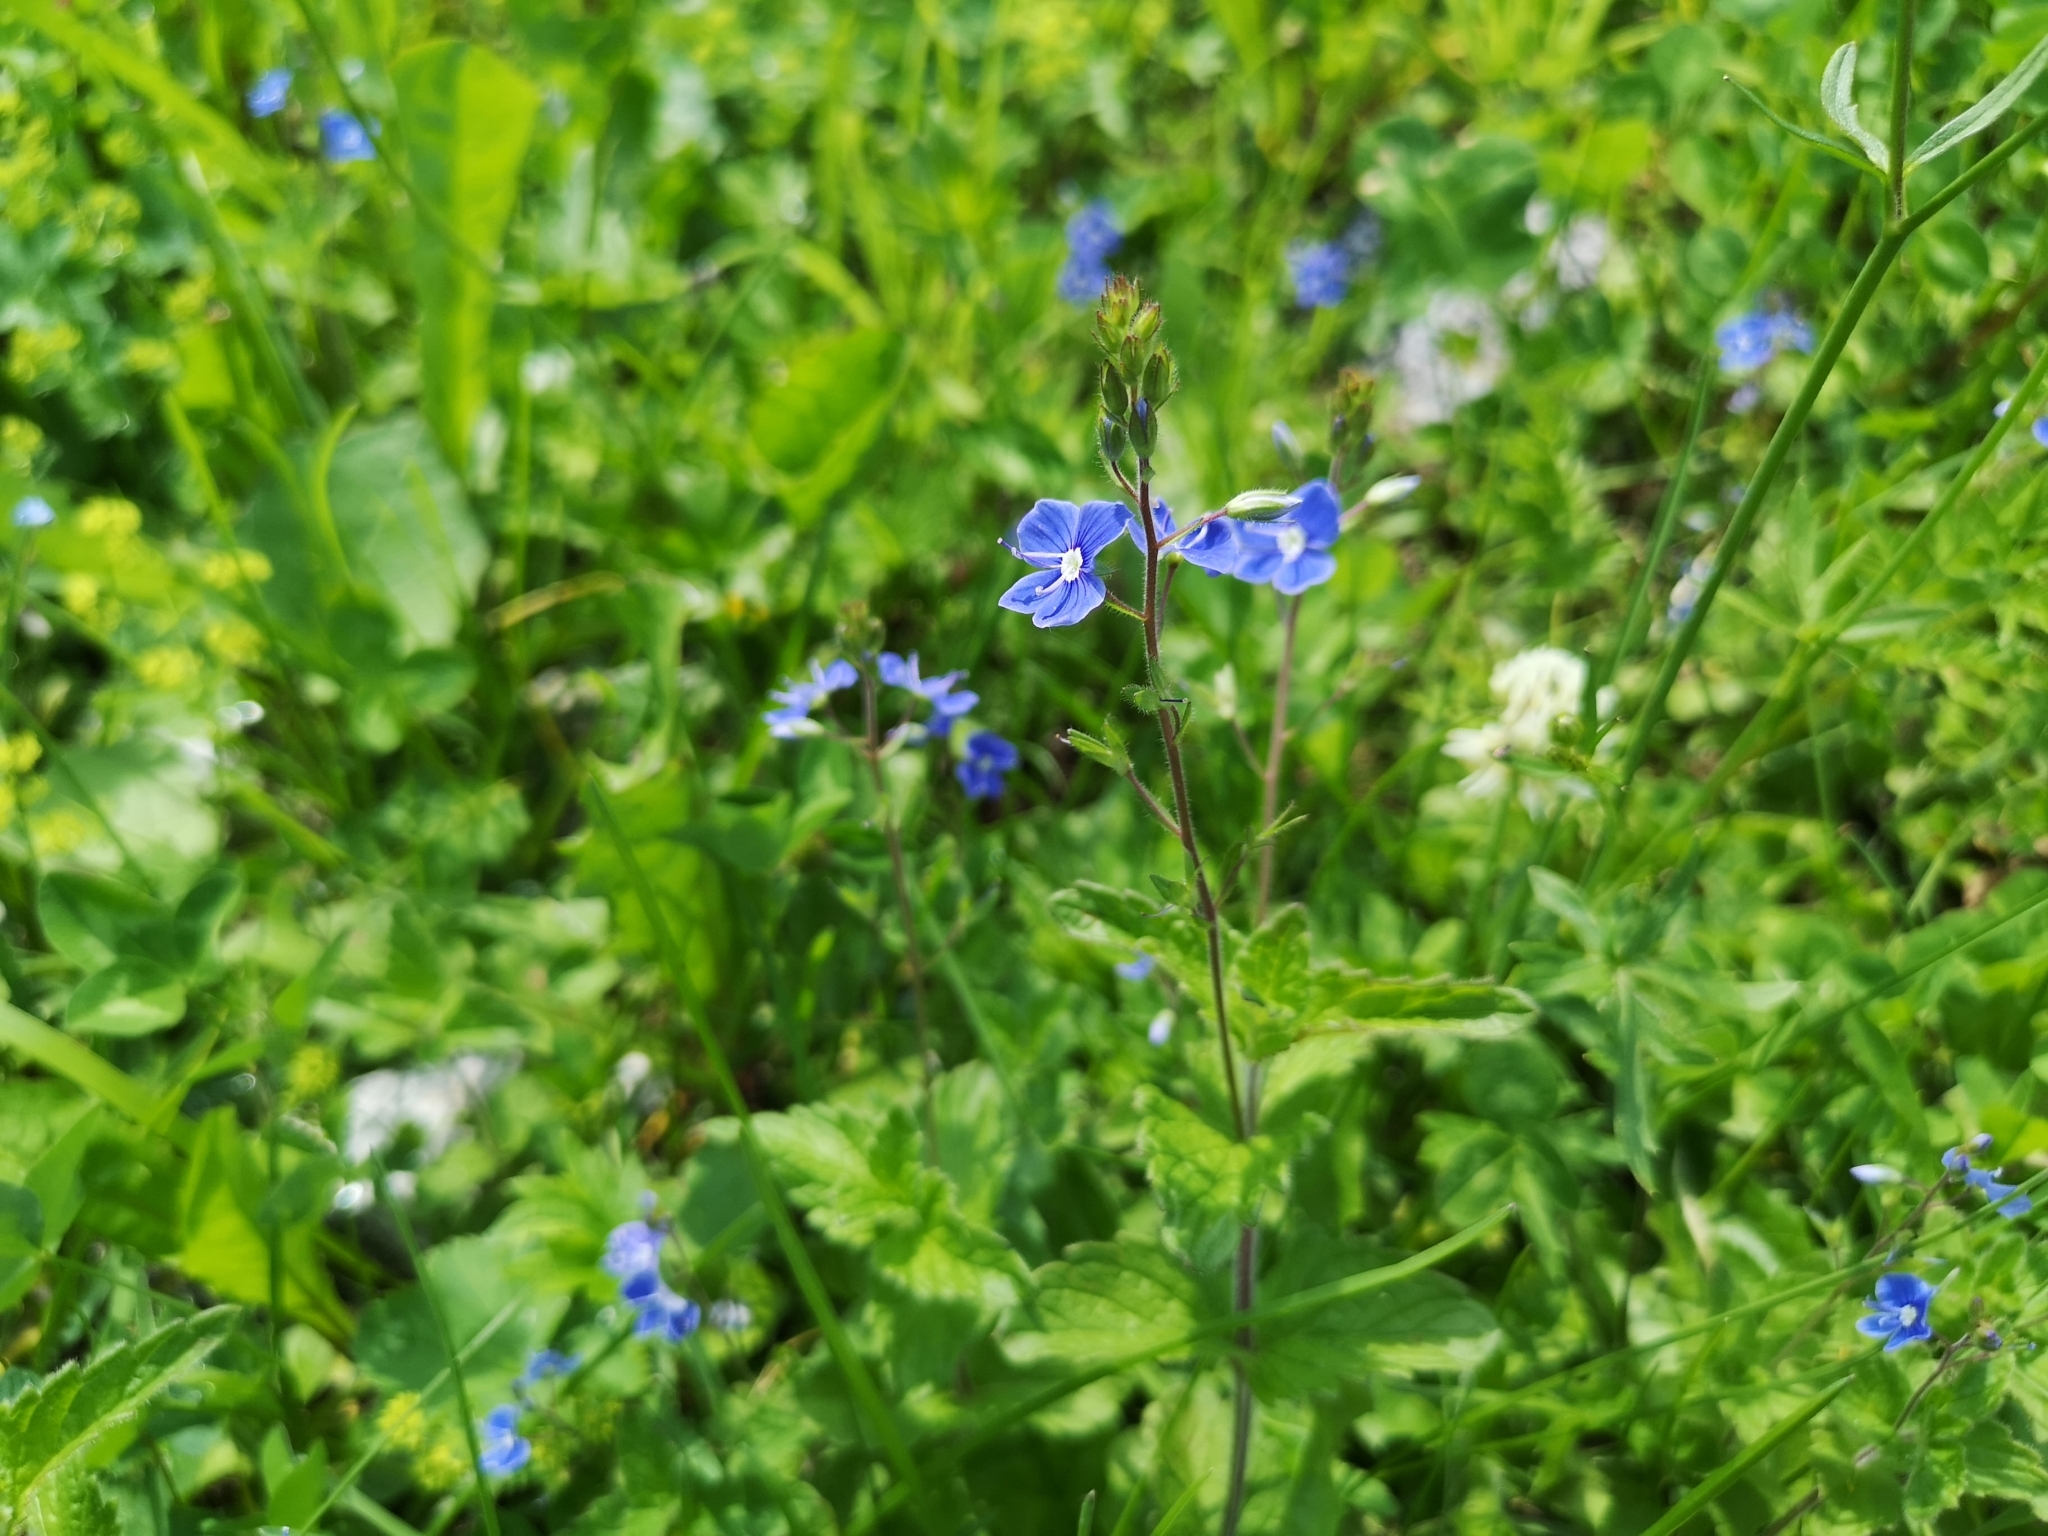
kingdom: Plantae
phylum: Tracheophyta
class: Magnoliopsida
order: Lamiales
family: Plantaginaceae
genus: Veronica
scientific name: Veronica chamaedrys
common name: Germander speedwell
